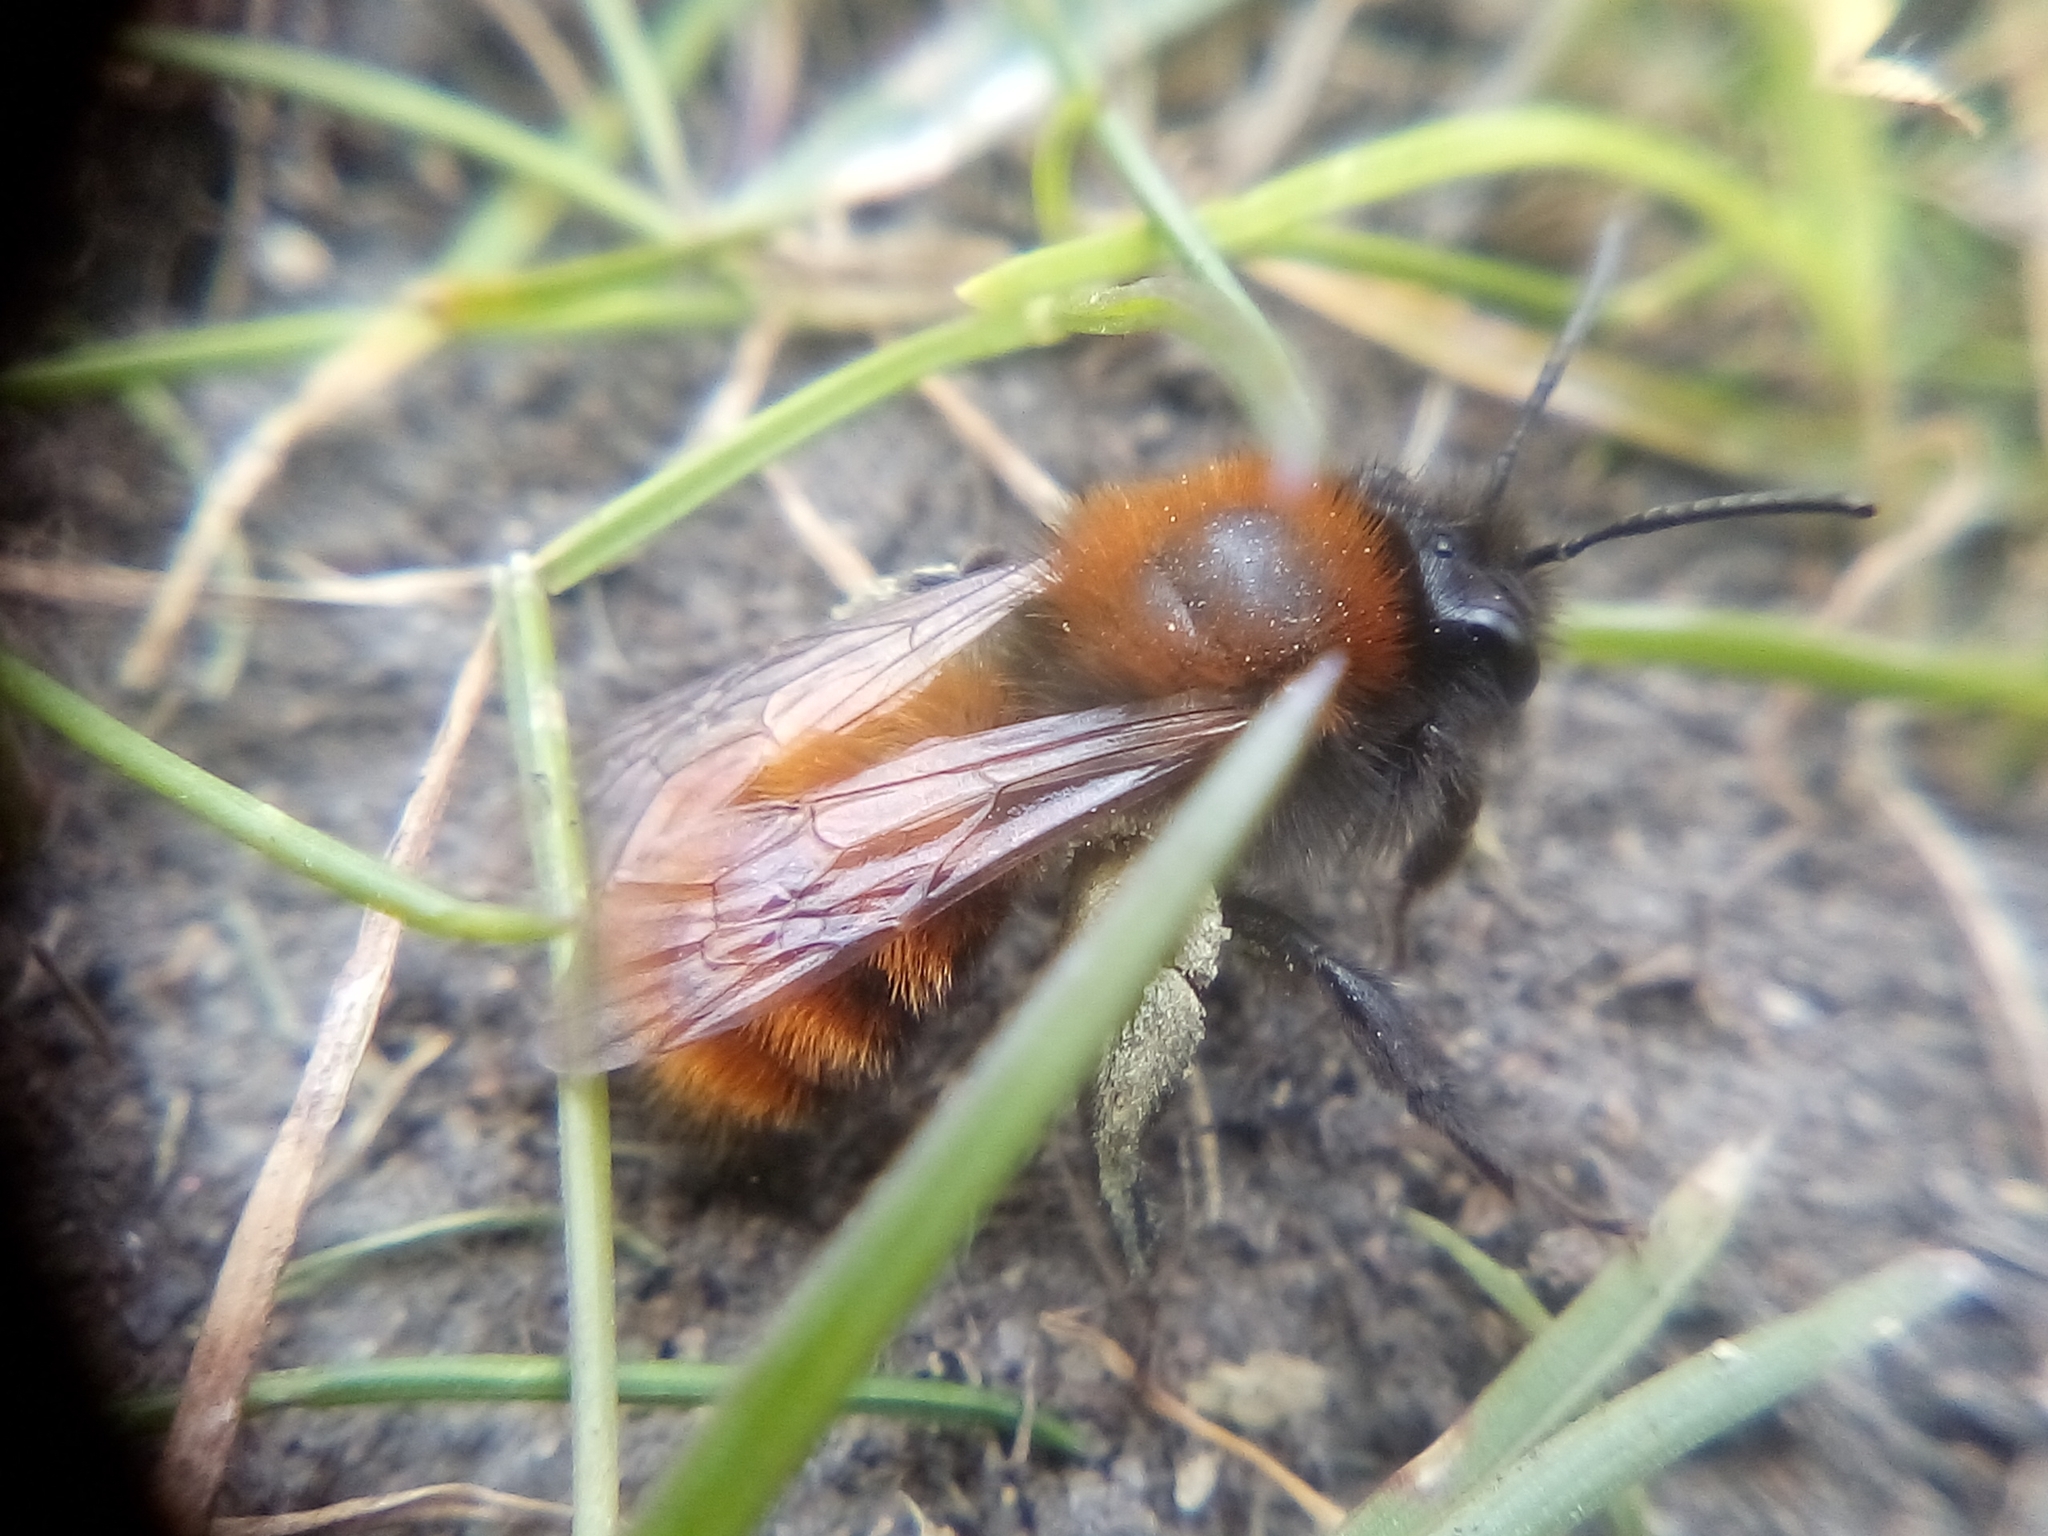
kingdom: Animalia
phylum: Arthropoda
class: Insecta
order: Hymenoptera
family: Andrenidae
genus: Andrena
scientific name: Andrena fulva
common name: Tawny mining bee
